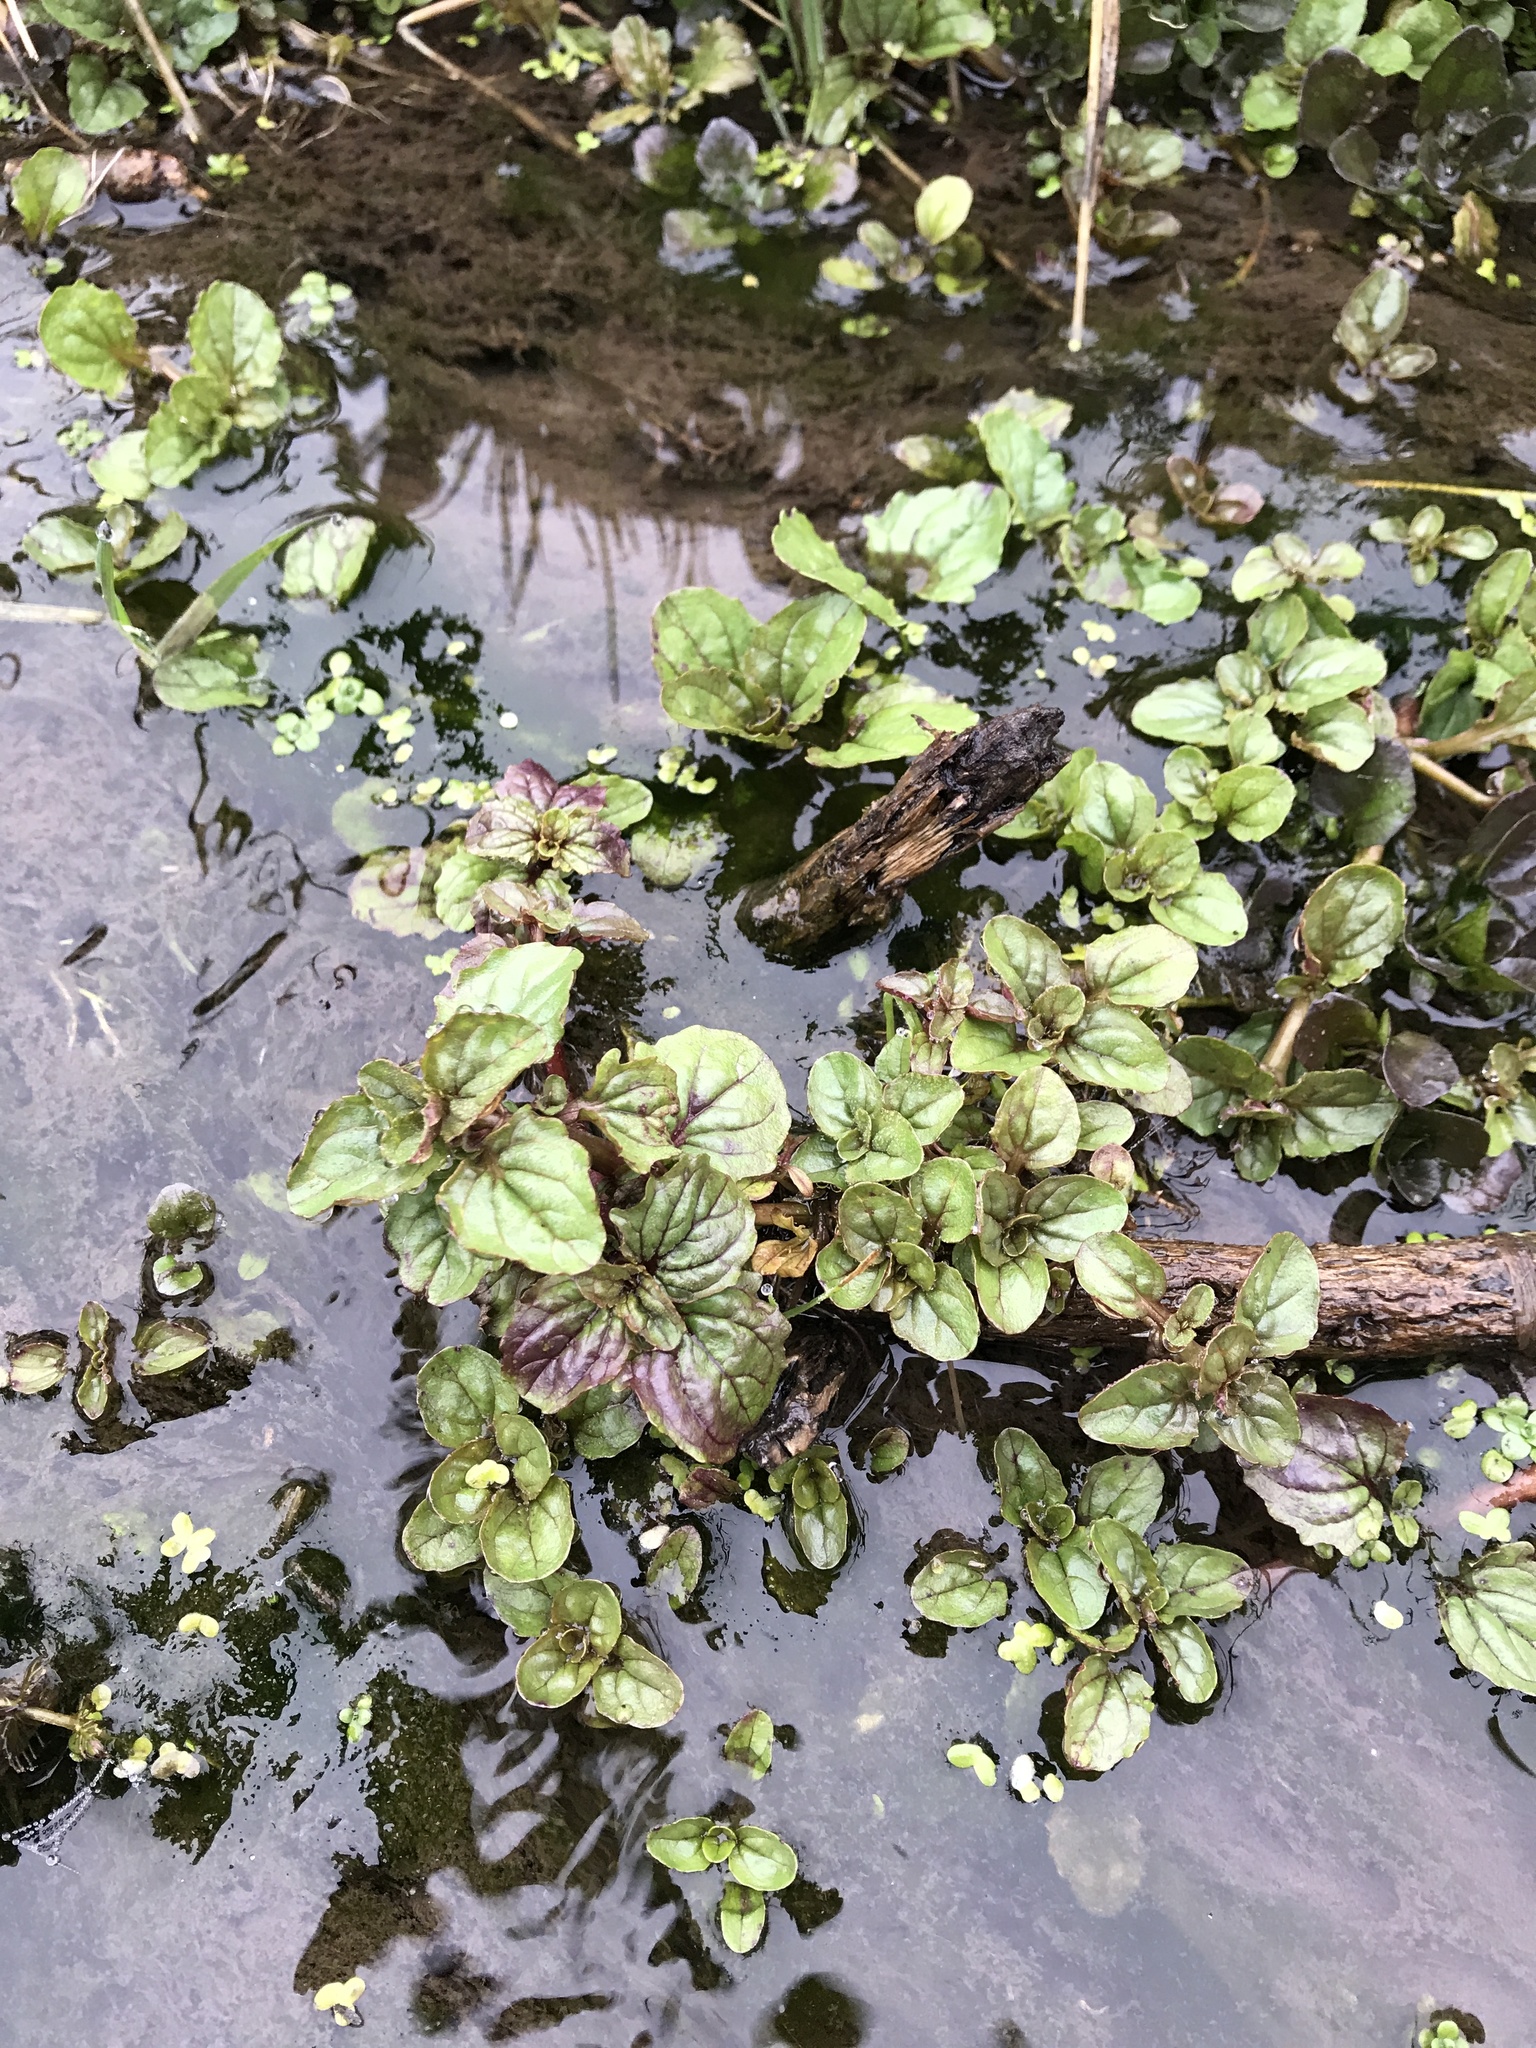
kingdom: Plantae
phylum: Tracheophyta
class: Magnoliopsida
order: Lamiales
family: Phrymaceae
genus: Erythranthe
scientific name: Erythranthe guttata
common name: Monkeyflower
